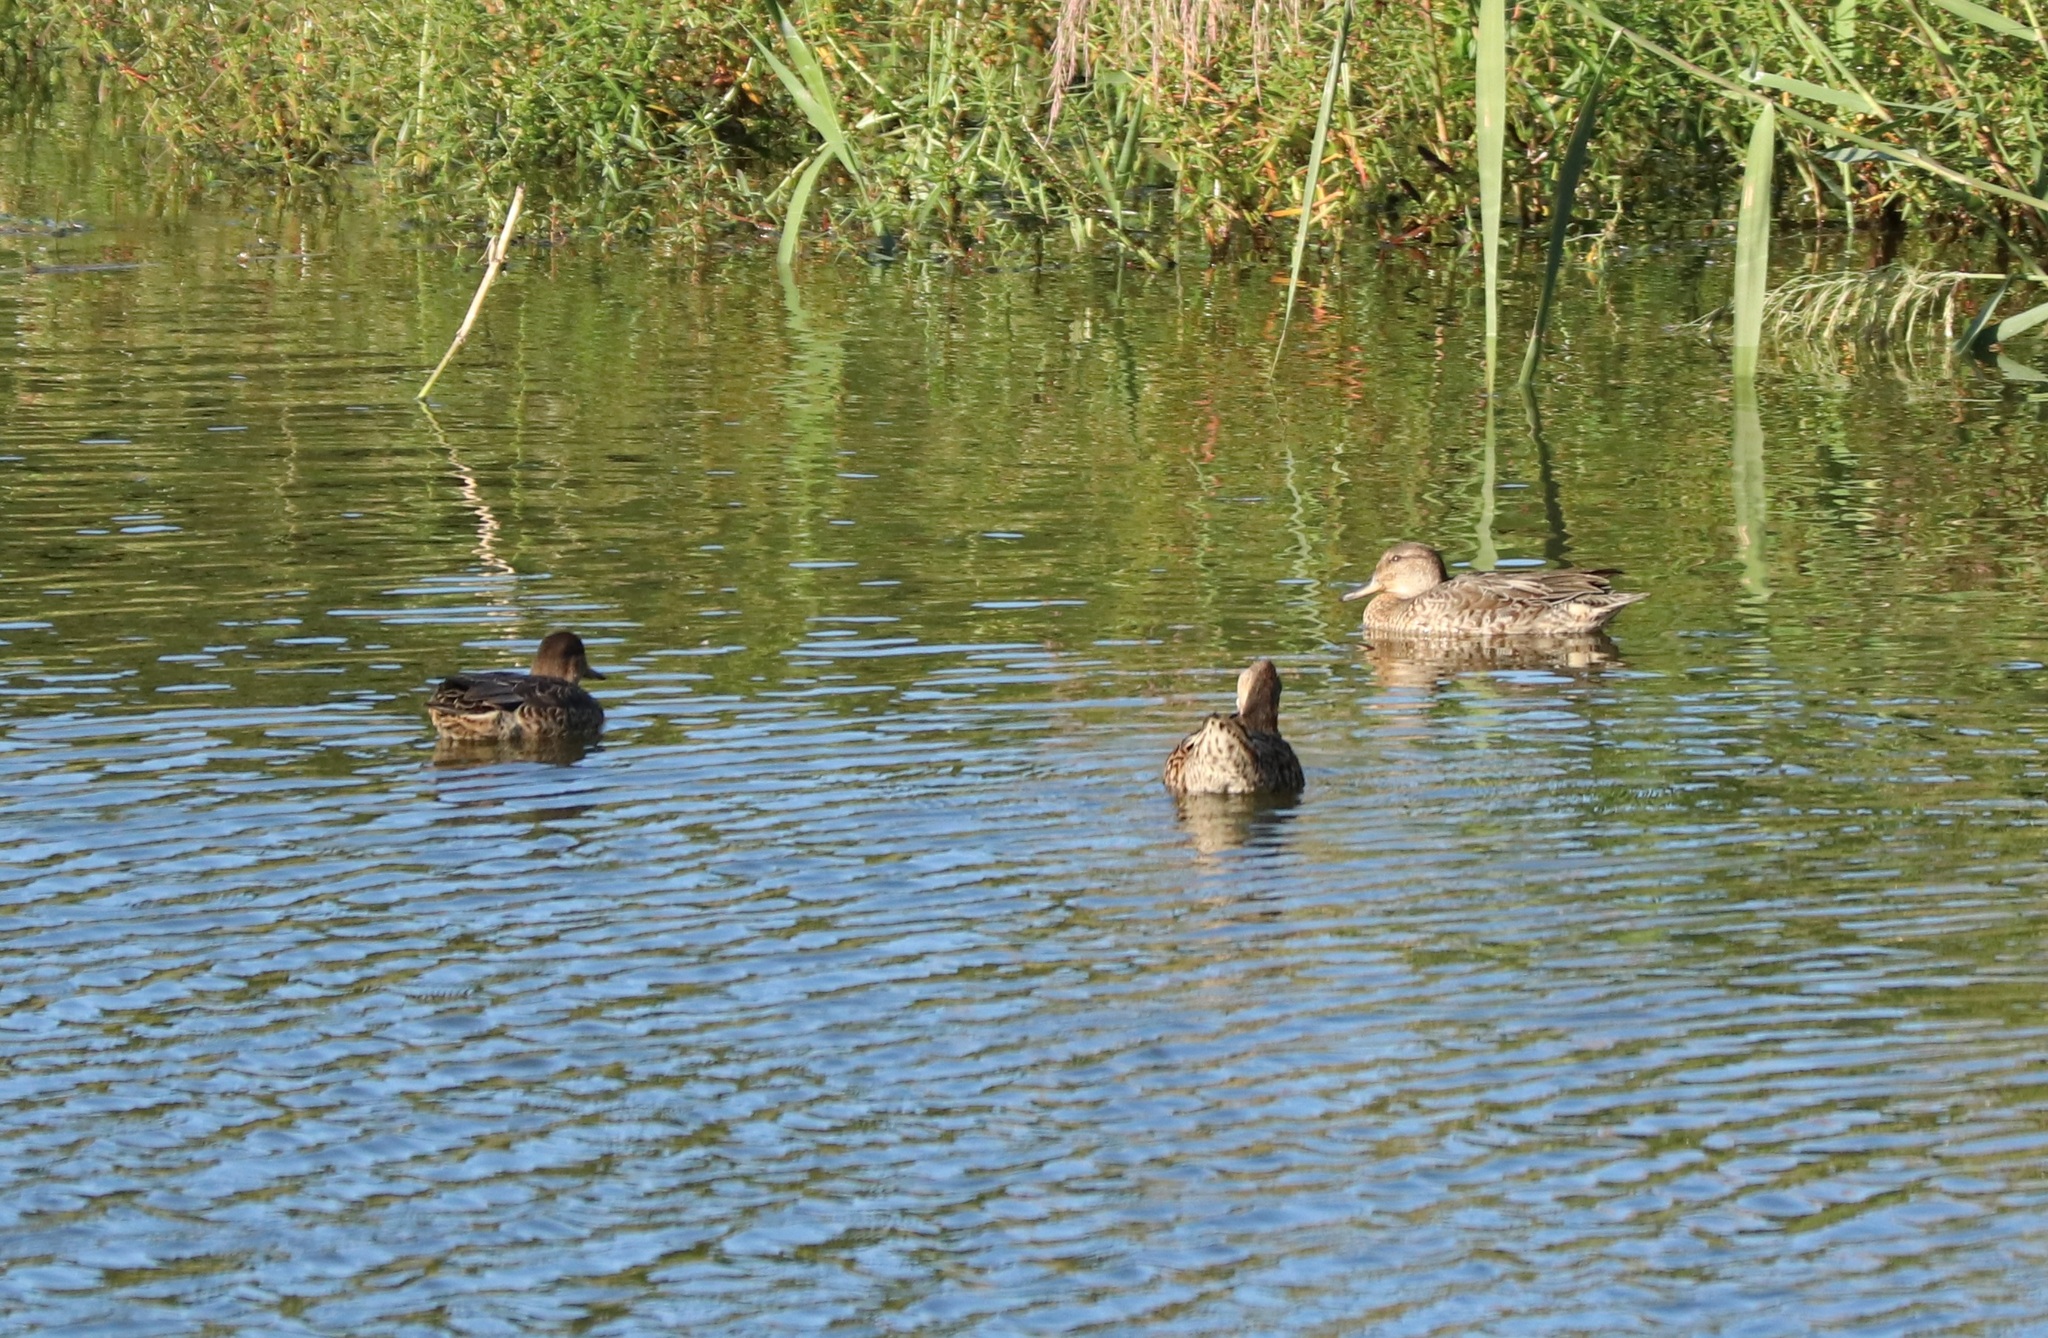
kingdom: Animalia
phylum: Chordata
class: Aves
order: Anseriformes
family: Anatidae
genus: Anas
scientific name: Anas crecca
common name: Eurasian teal
